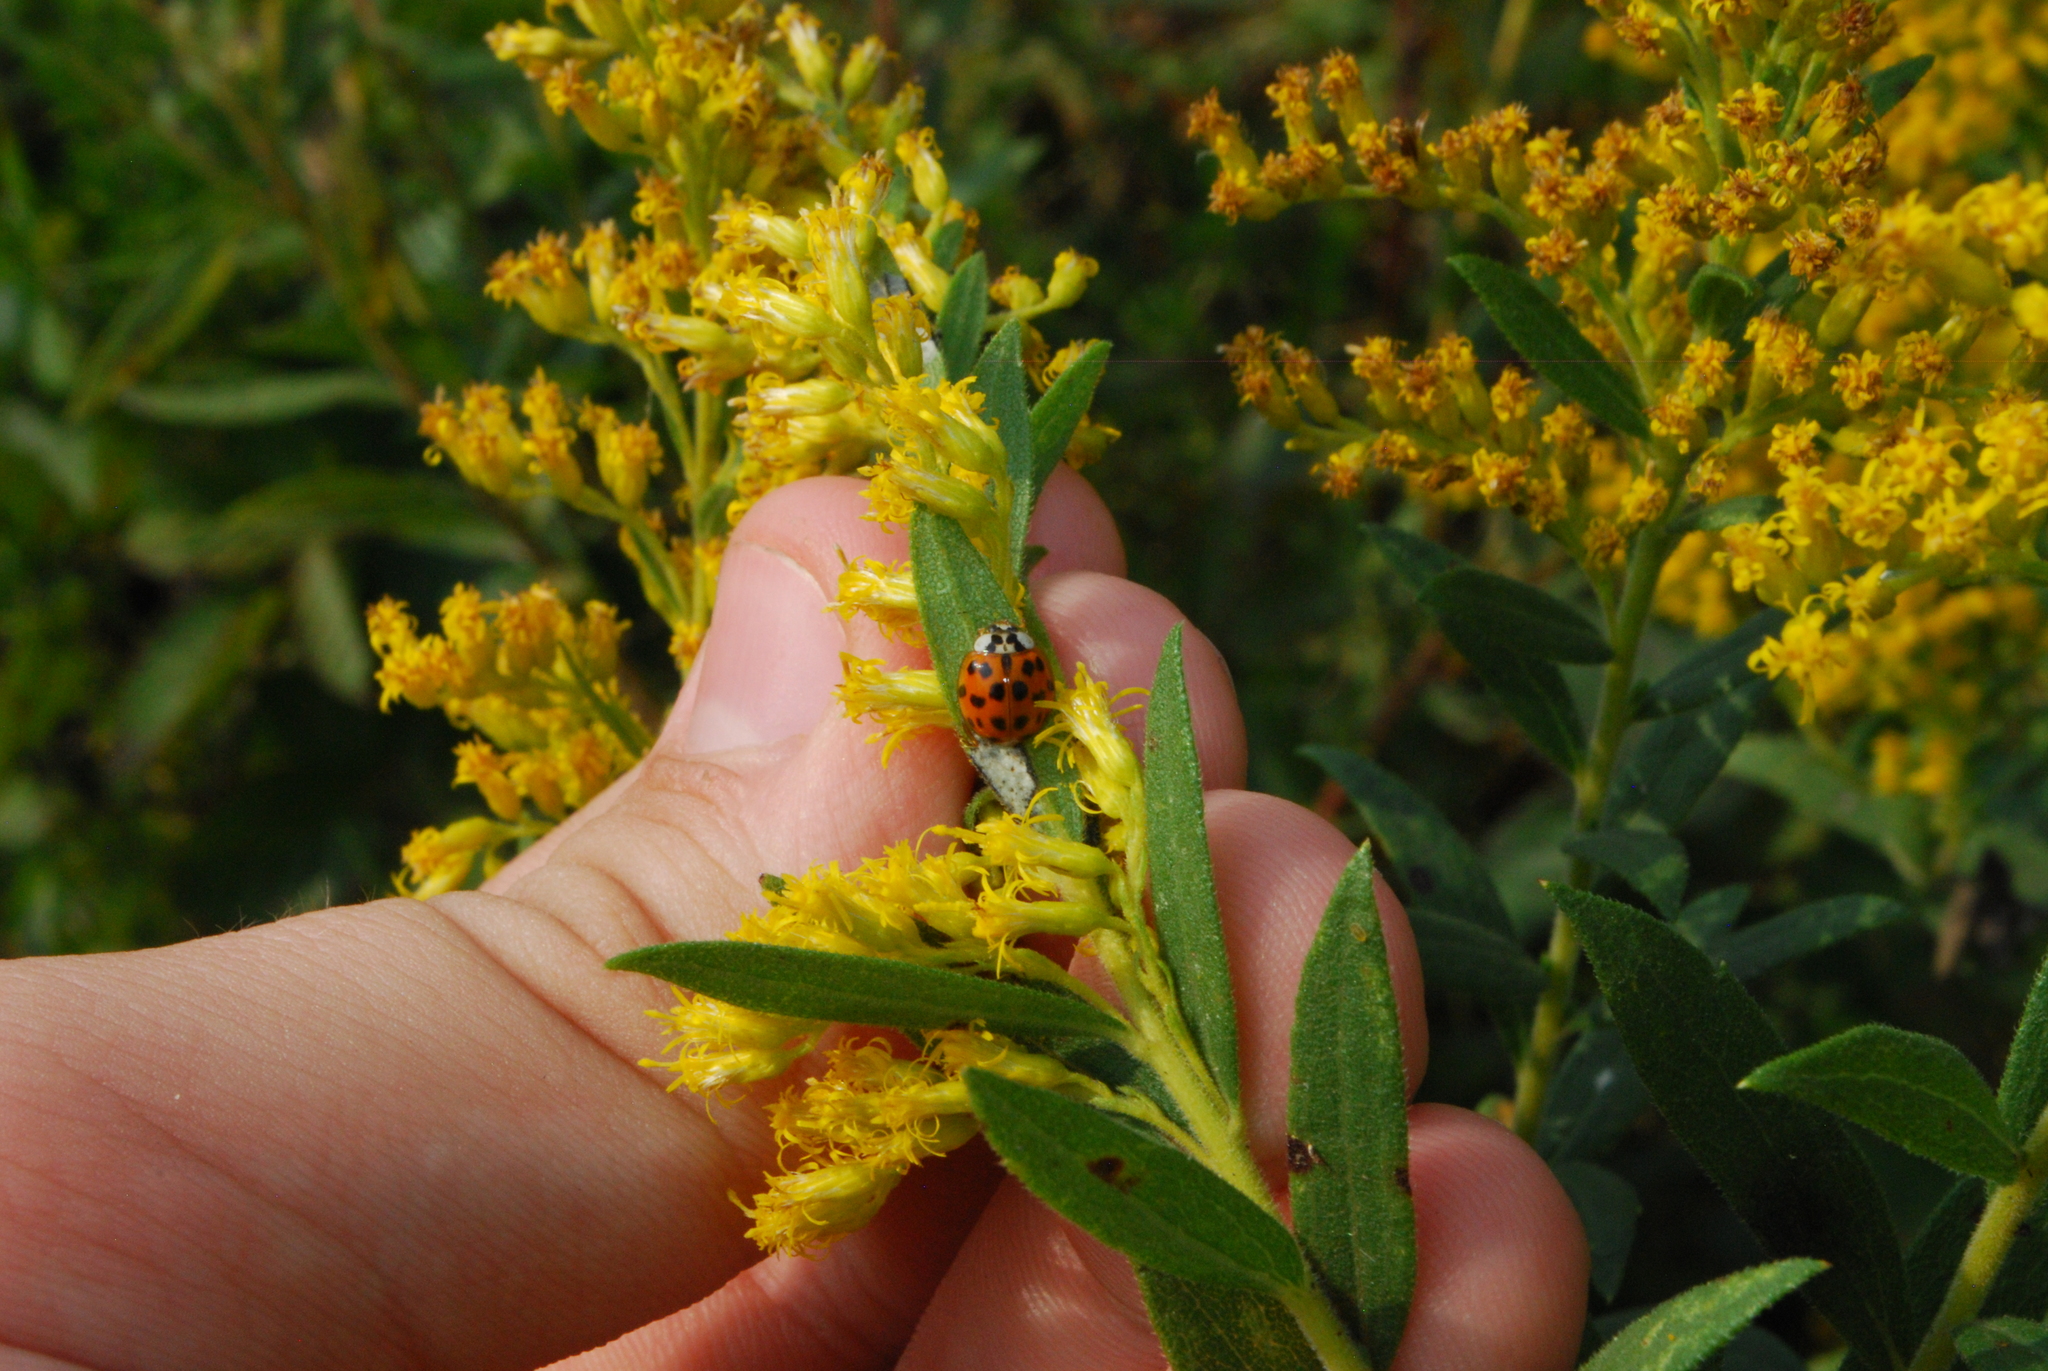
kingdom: Animalia
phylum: Arthropoda
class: Insecta
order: Coleoptera
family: Coccinellidae
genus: Harmonia
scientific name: Harmonia axyridis
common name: Harlequin ladybird
